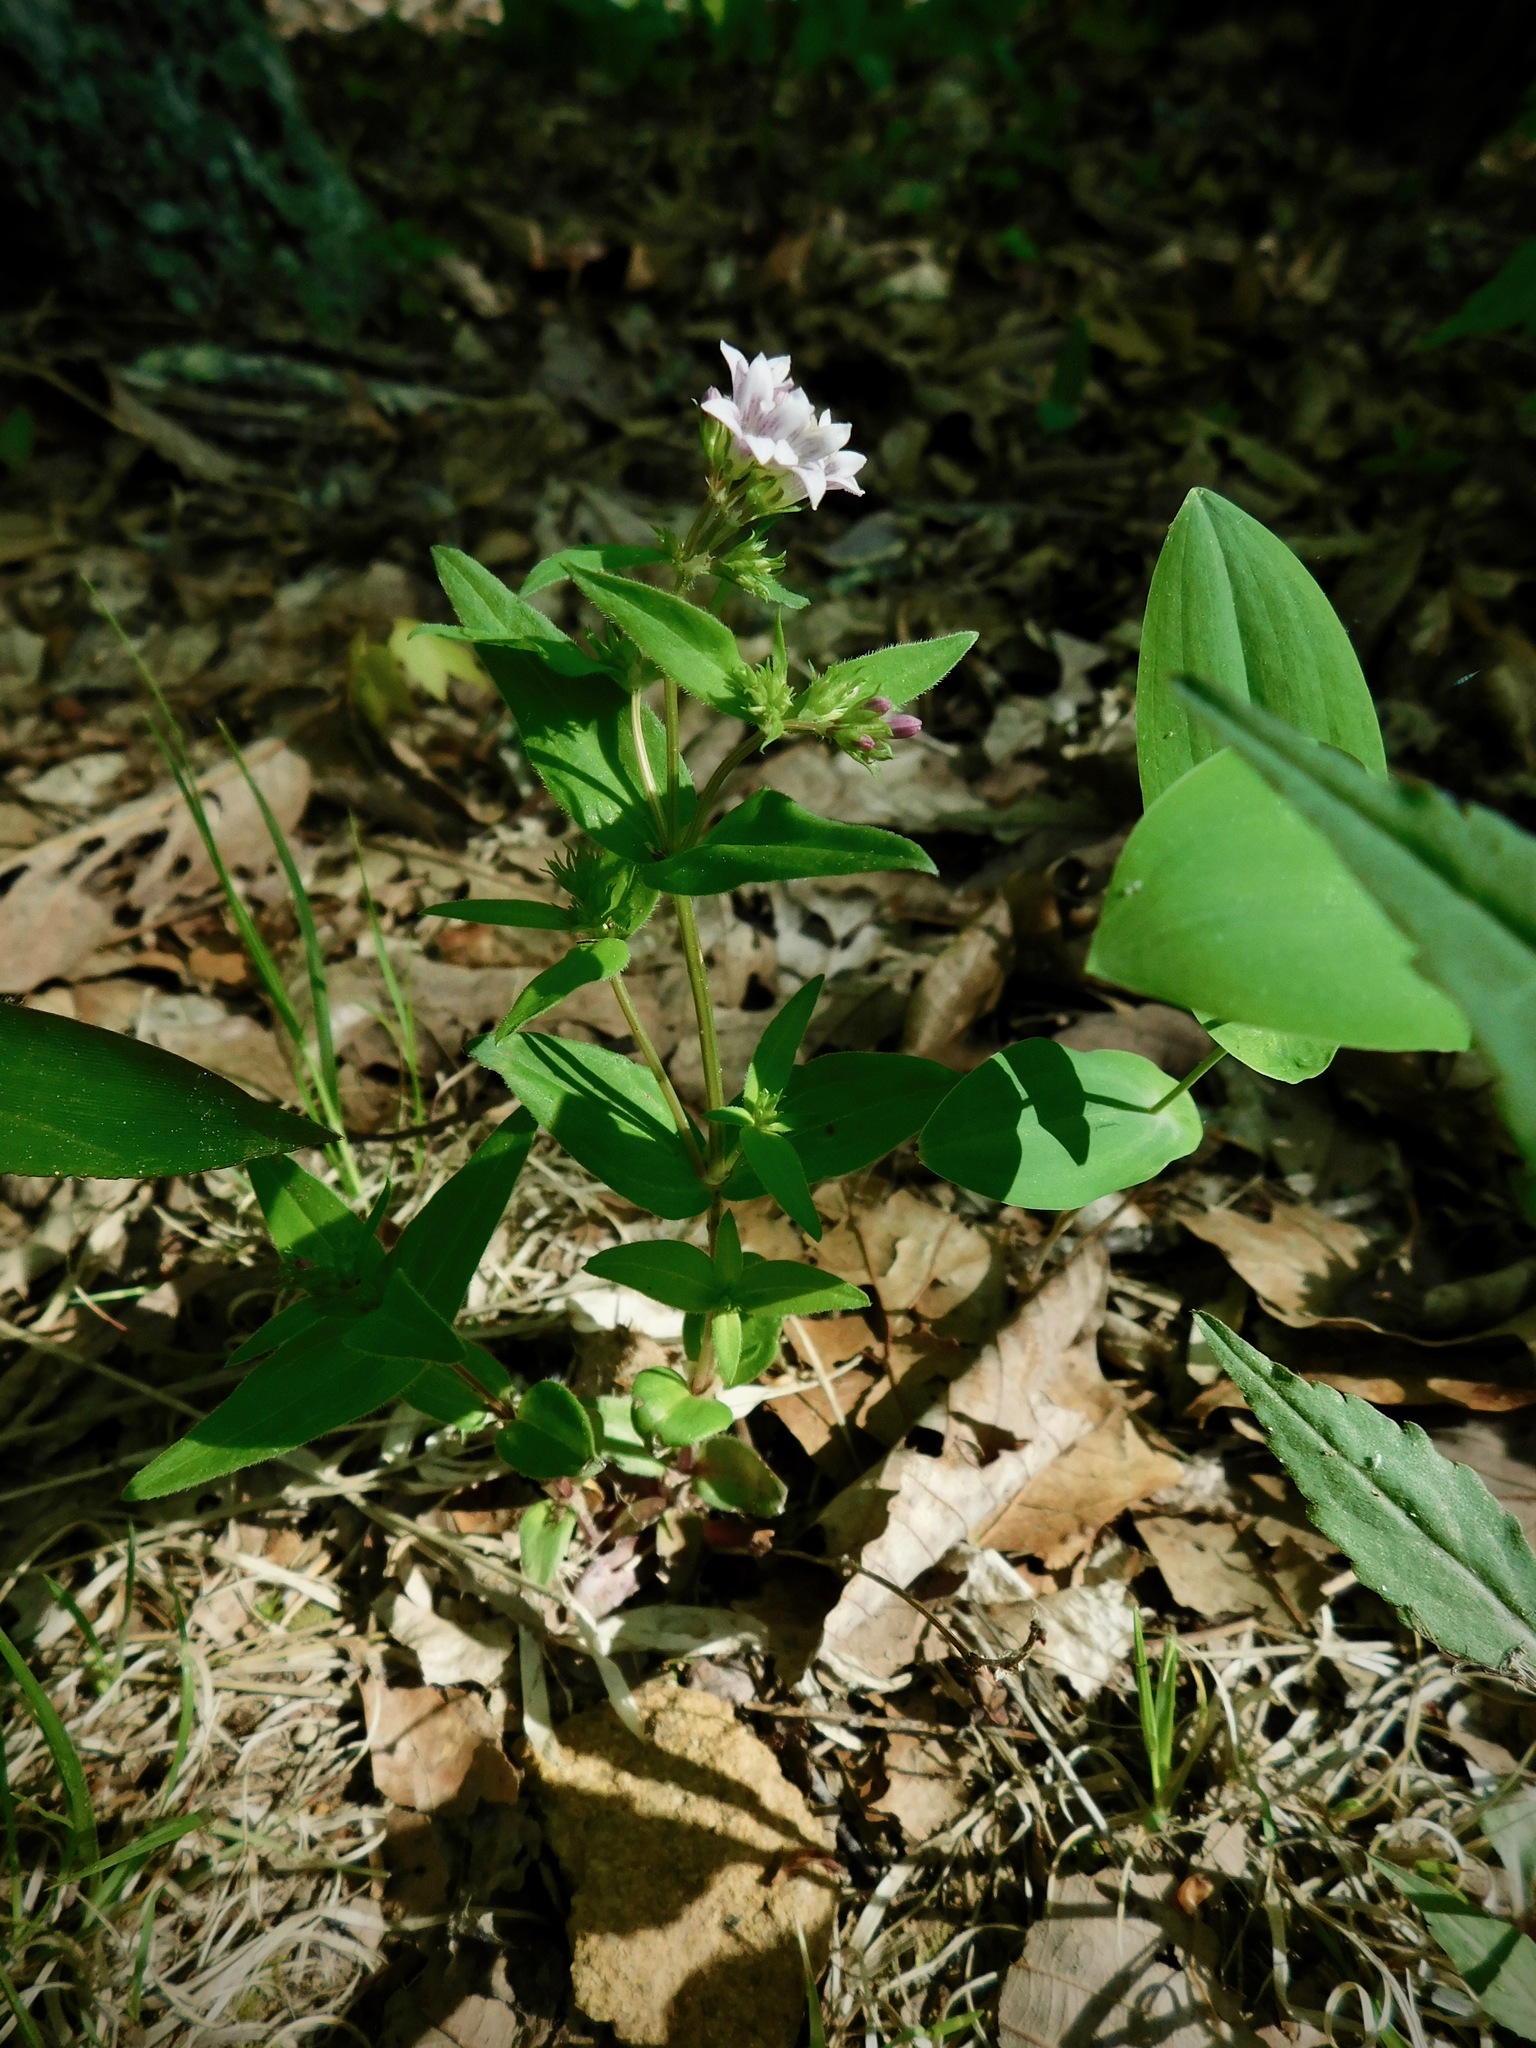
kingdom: Plantae
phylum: Tracheophyta
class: Magnoliopsida
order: Gentianales
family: Rubiaceae
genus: Houstonia
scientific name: Houstonia purpurea
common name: Summer bluet
